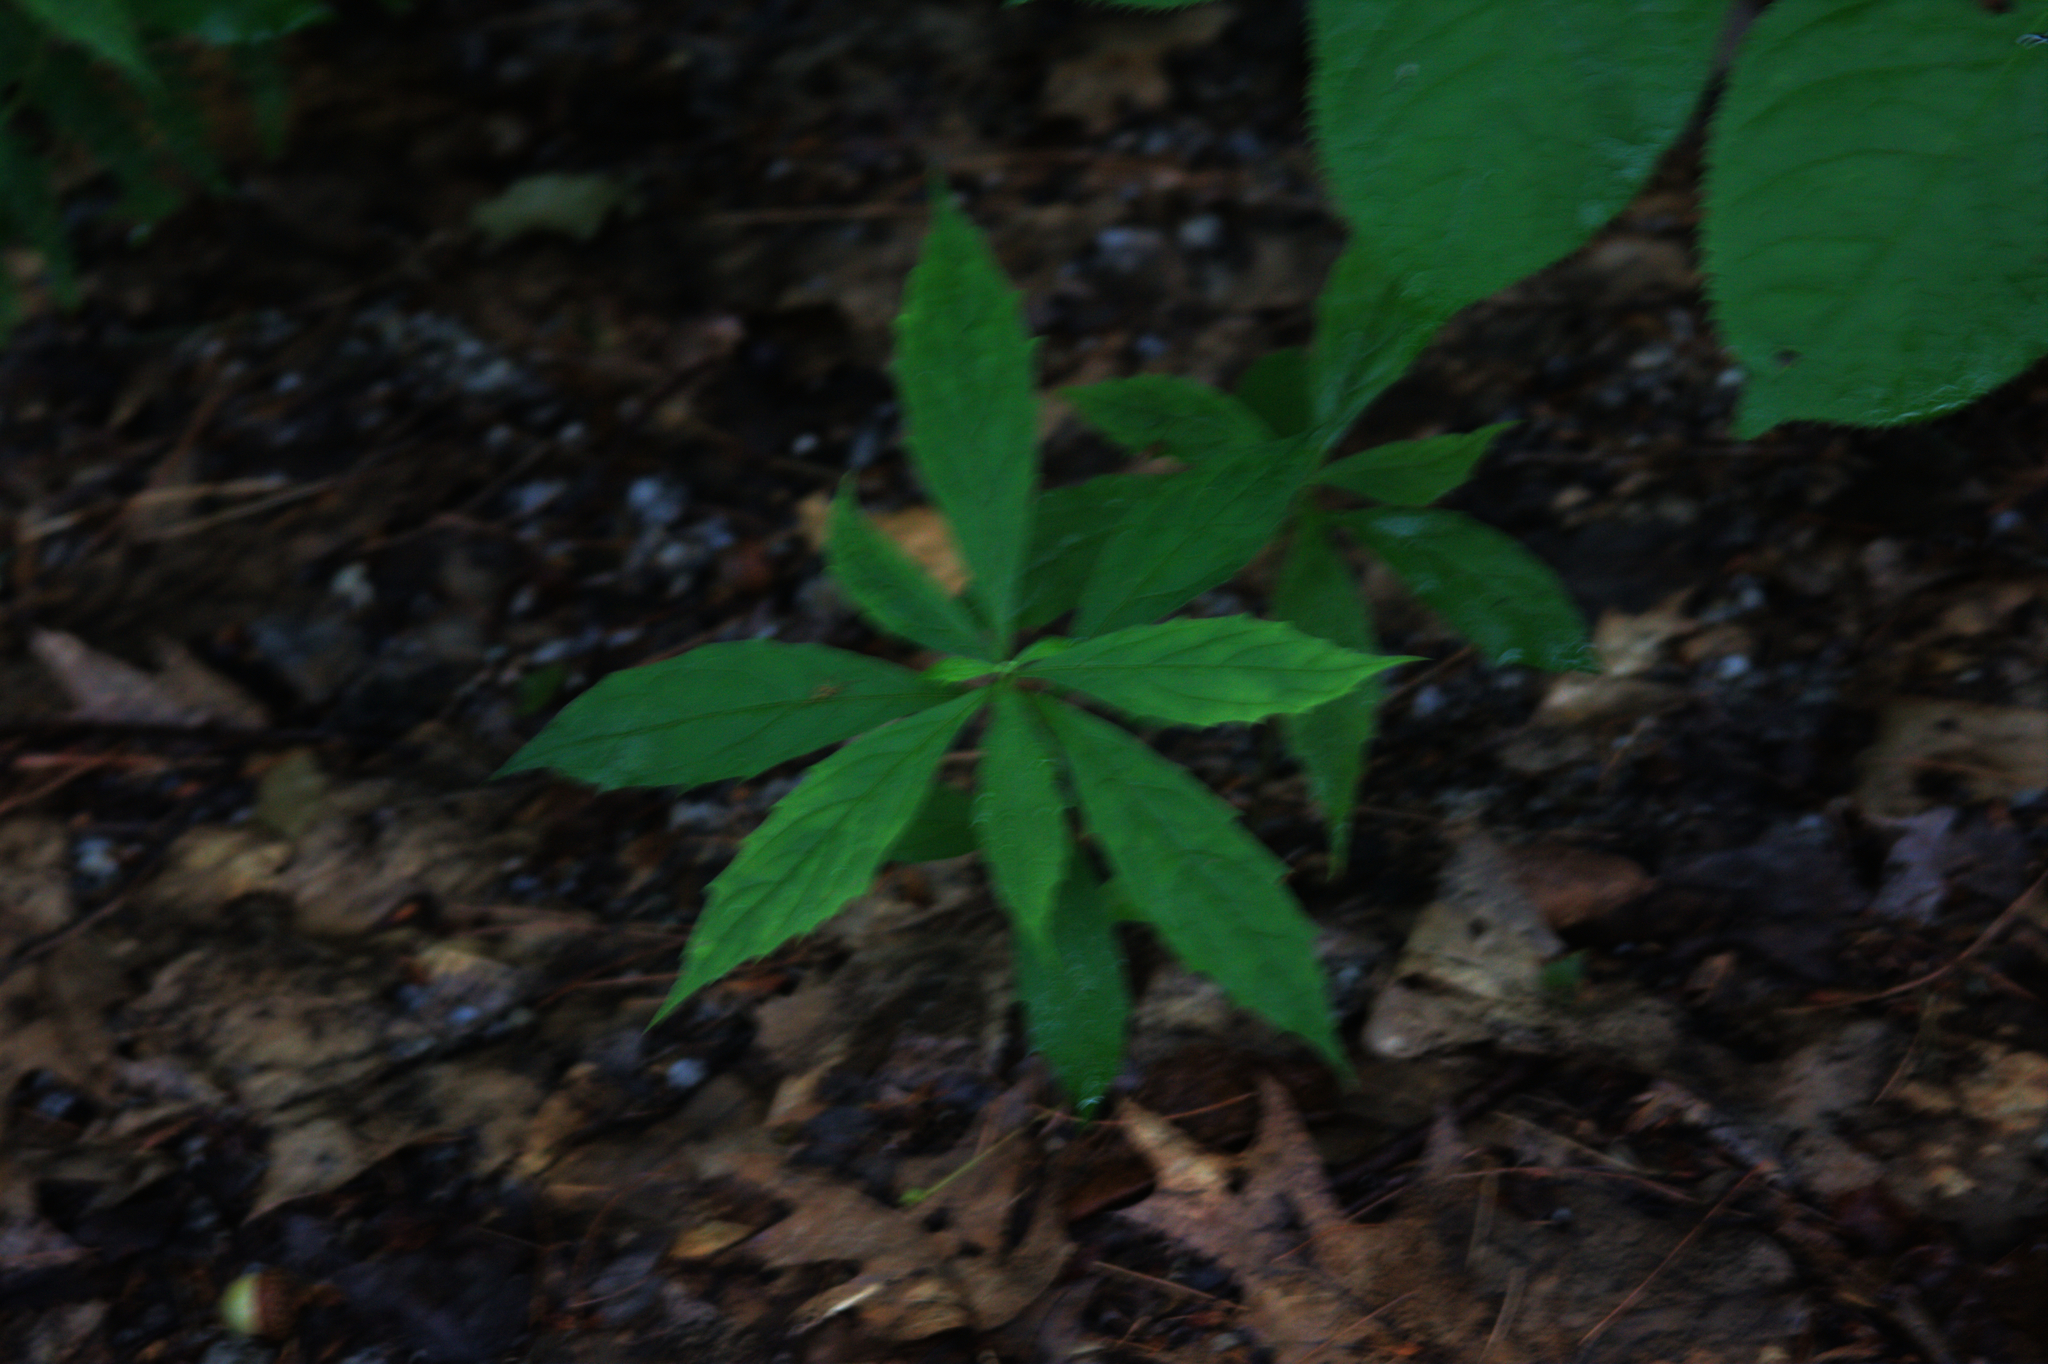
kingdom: Plantae
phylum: Tracheophyta
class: Magnoliopsida
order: Asterales
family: Asteraceae
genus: Oclemena
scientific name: Oclemena acuminata
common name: Mountain aster
